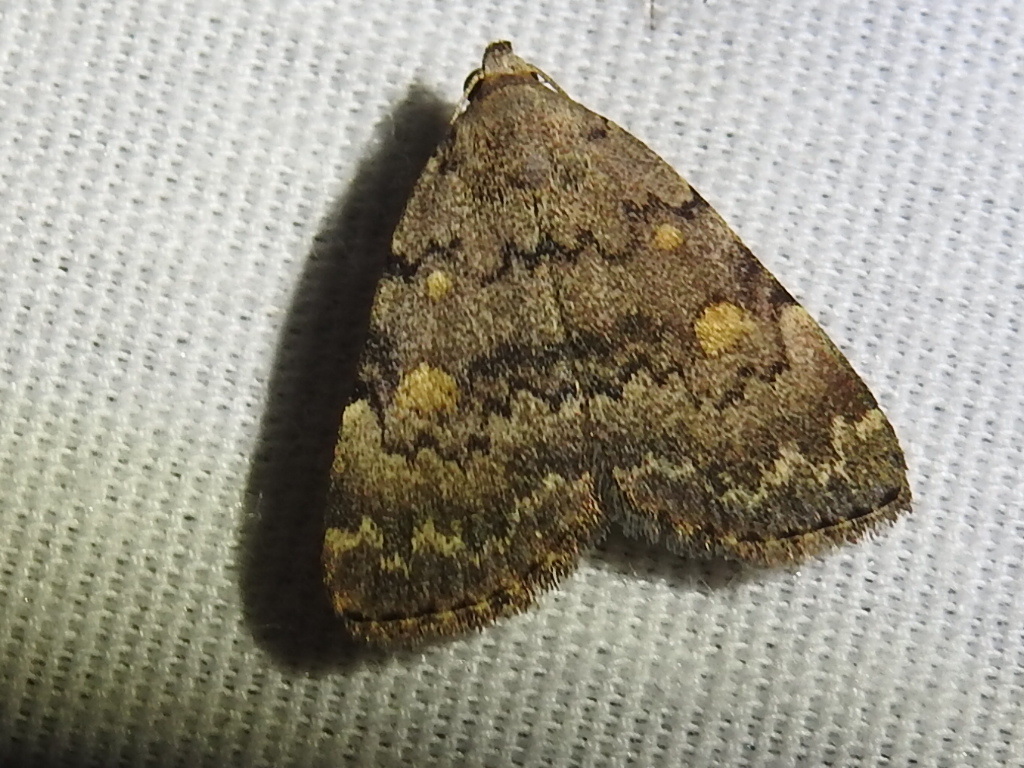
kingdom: Animalia
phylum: Arthropoda
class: Insecta
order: Lepidoptera
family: Erebidae
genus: Idia
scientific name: Idia aemula
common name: Common idia moth
